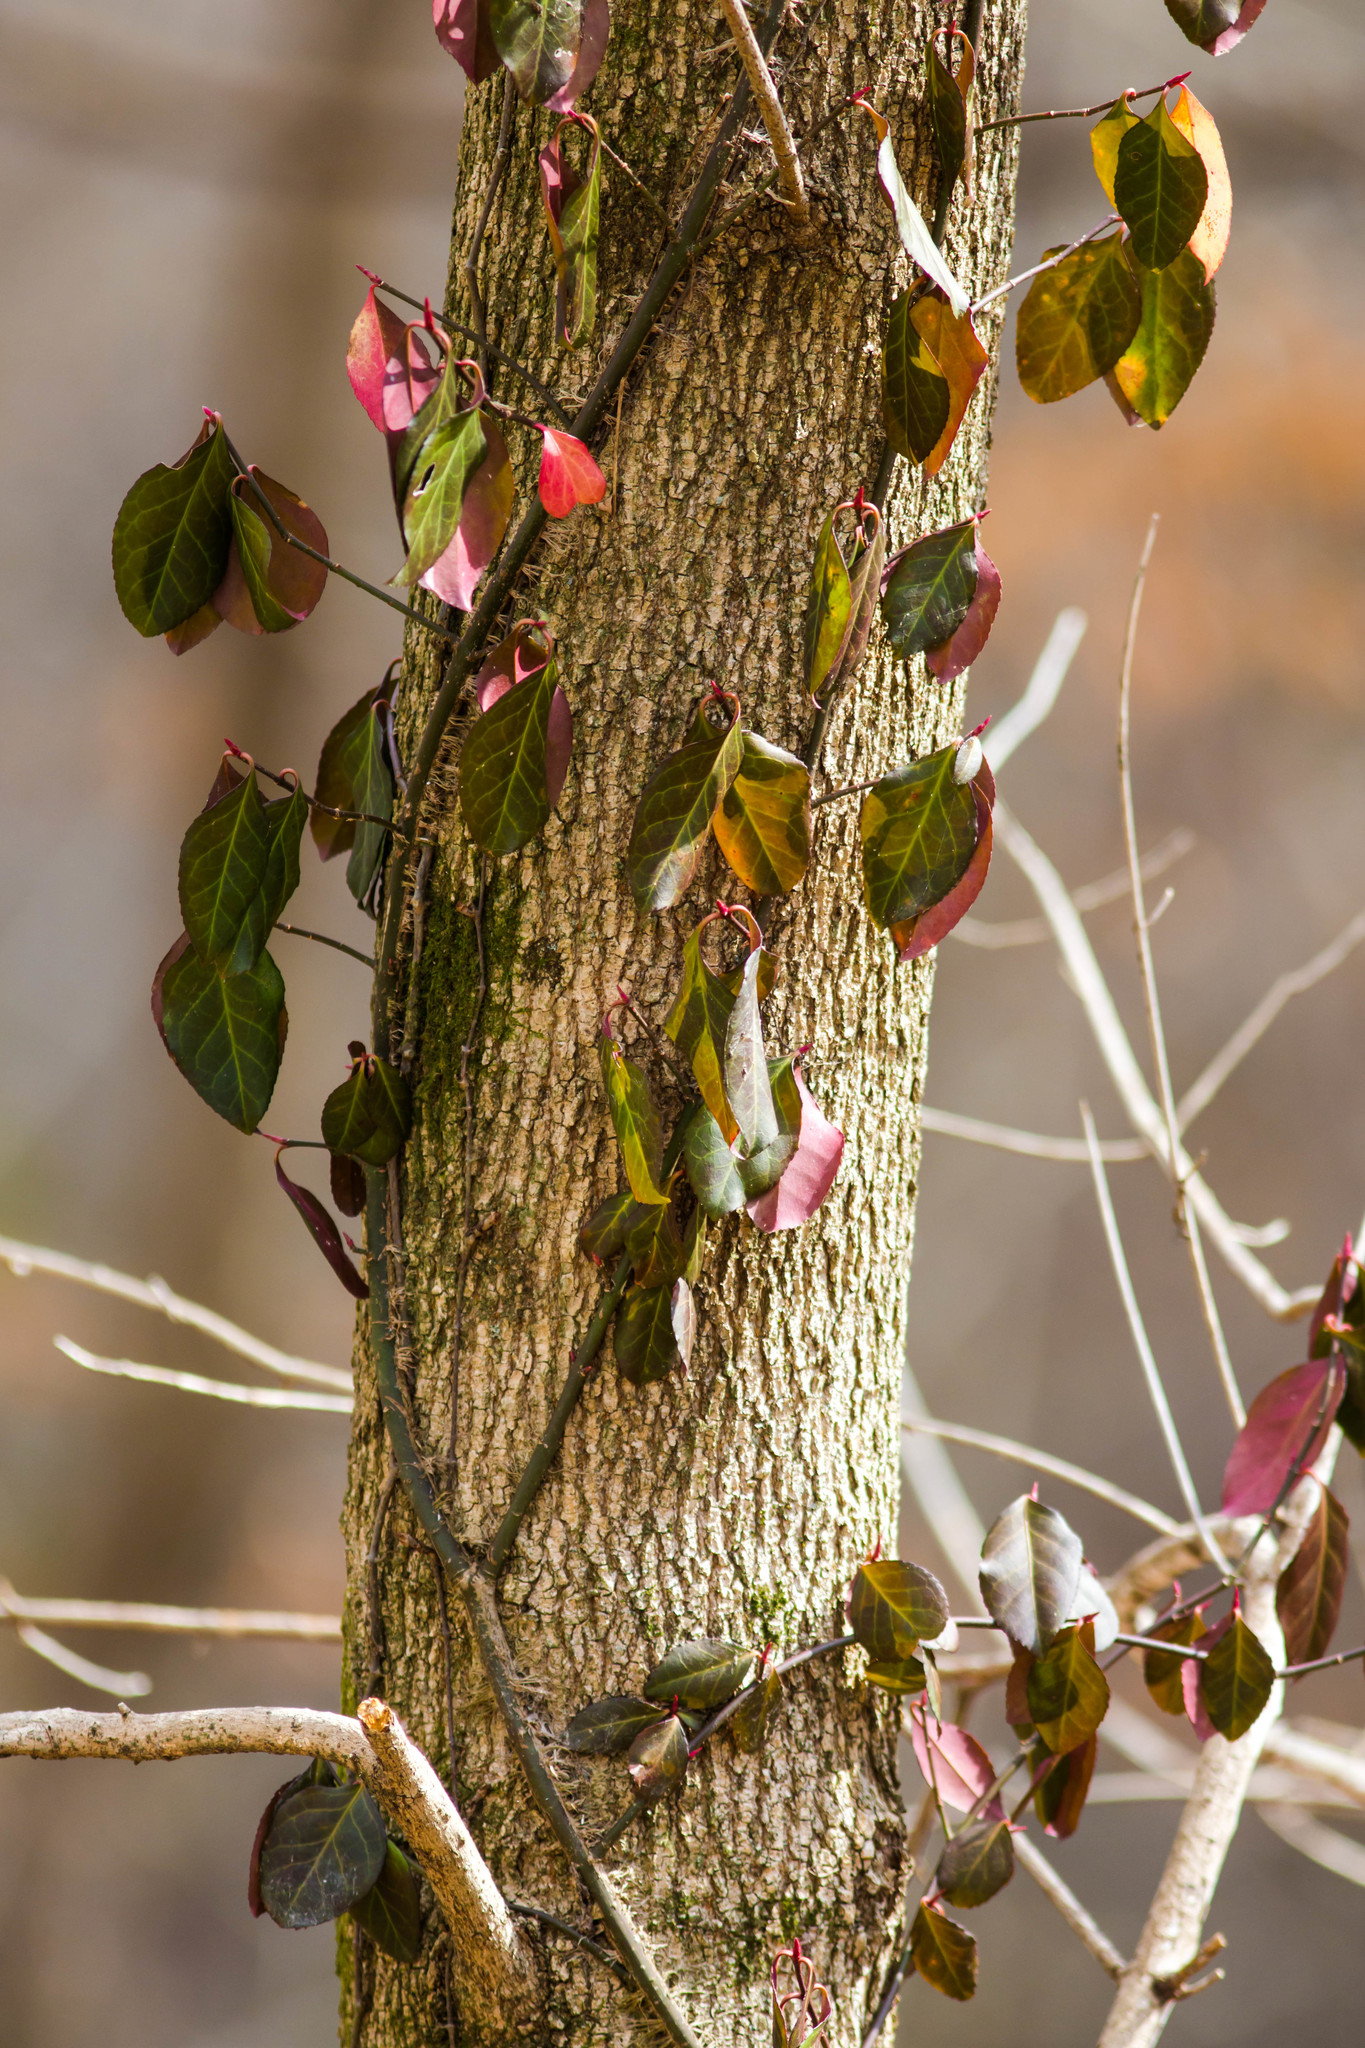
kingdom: Plantae
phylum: Tracheophyta
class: Magnoliopsida
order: Celastrales
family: Celastraceae
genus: Euonymus
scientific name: Euonymus fortunei
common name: Climbing euonymus
